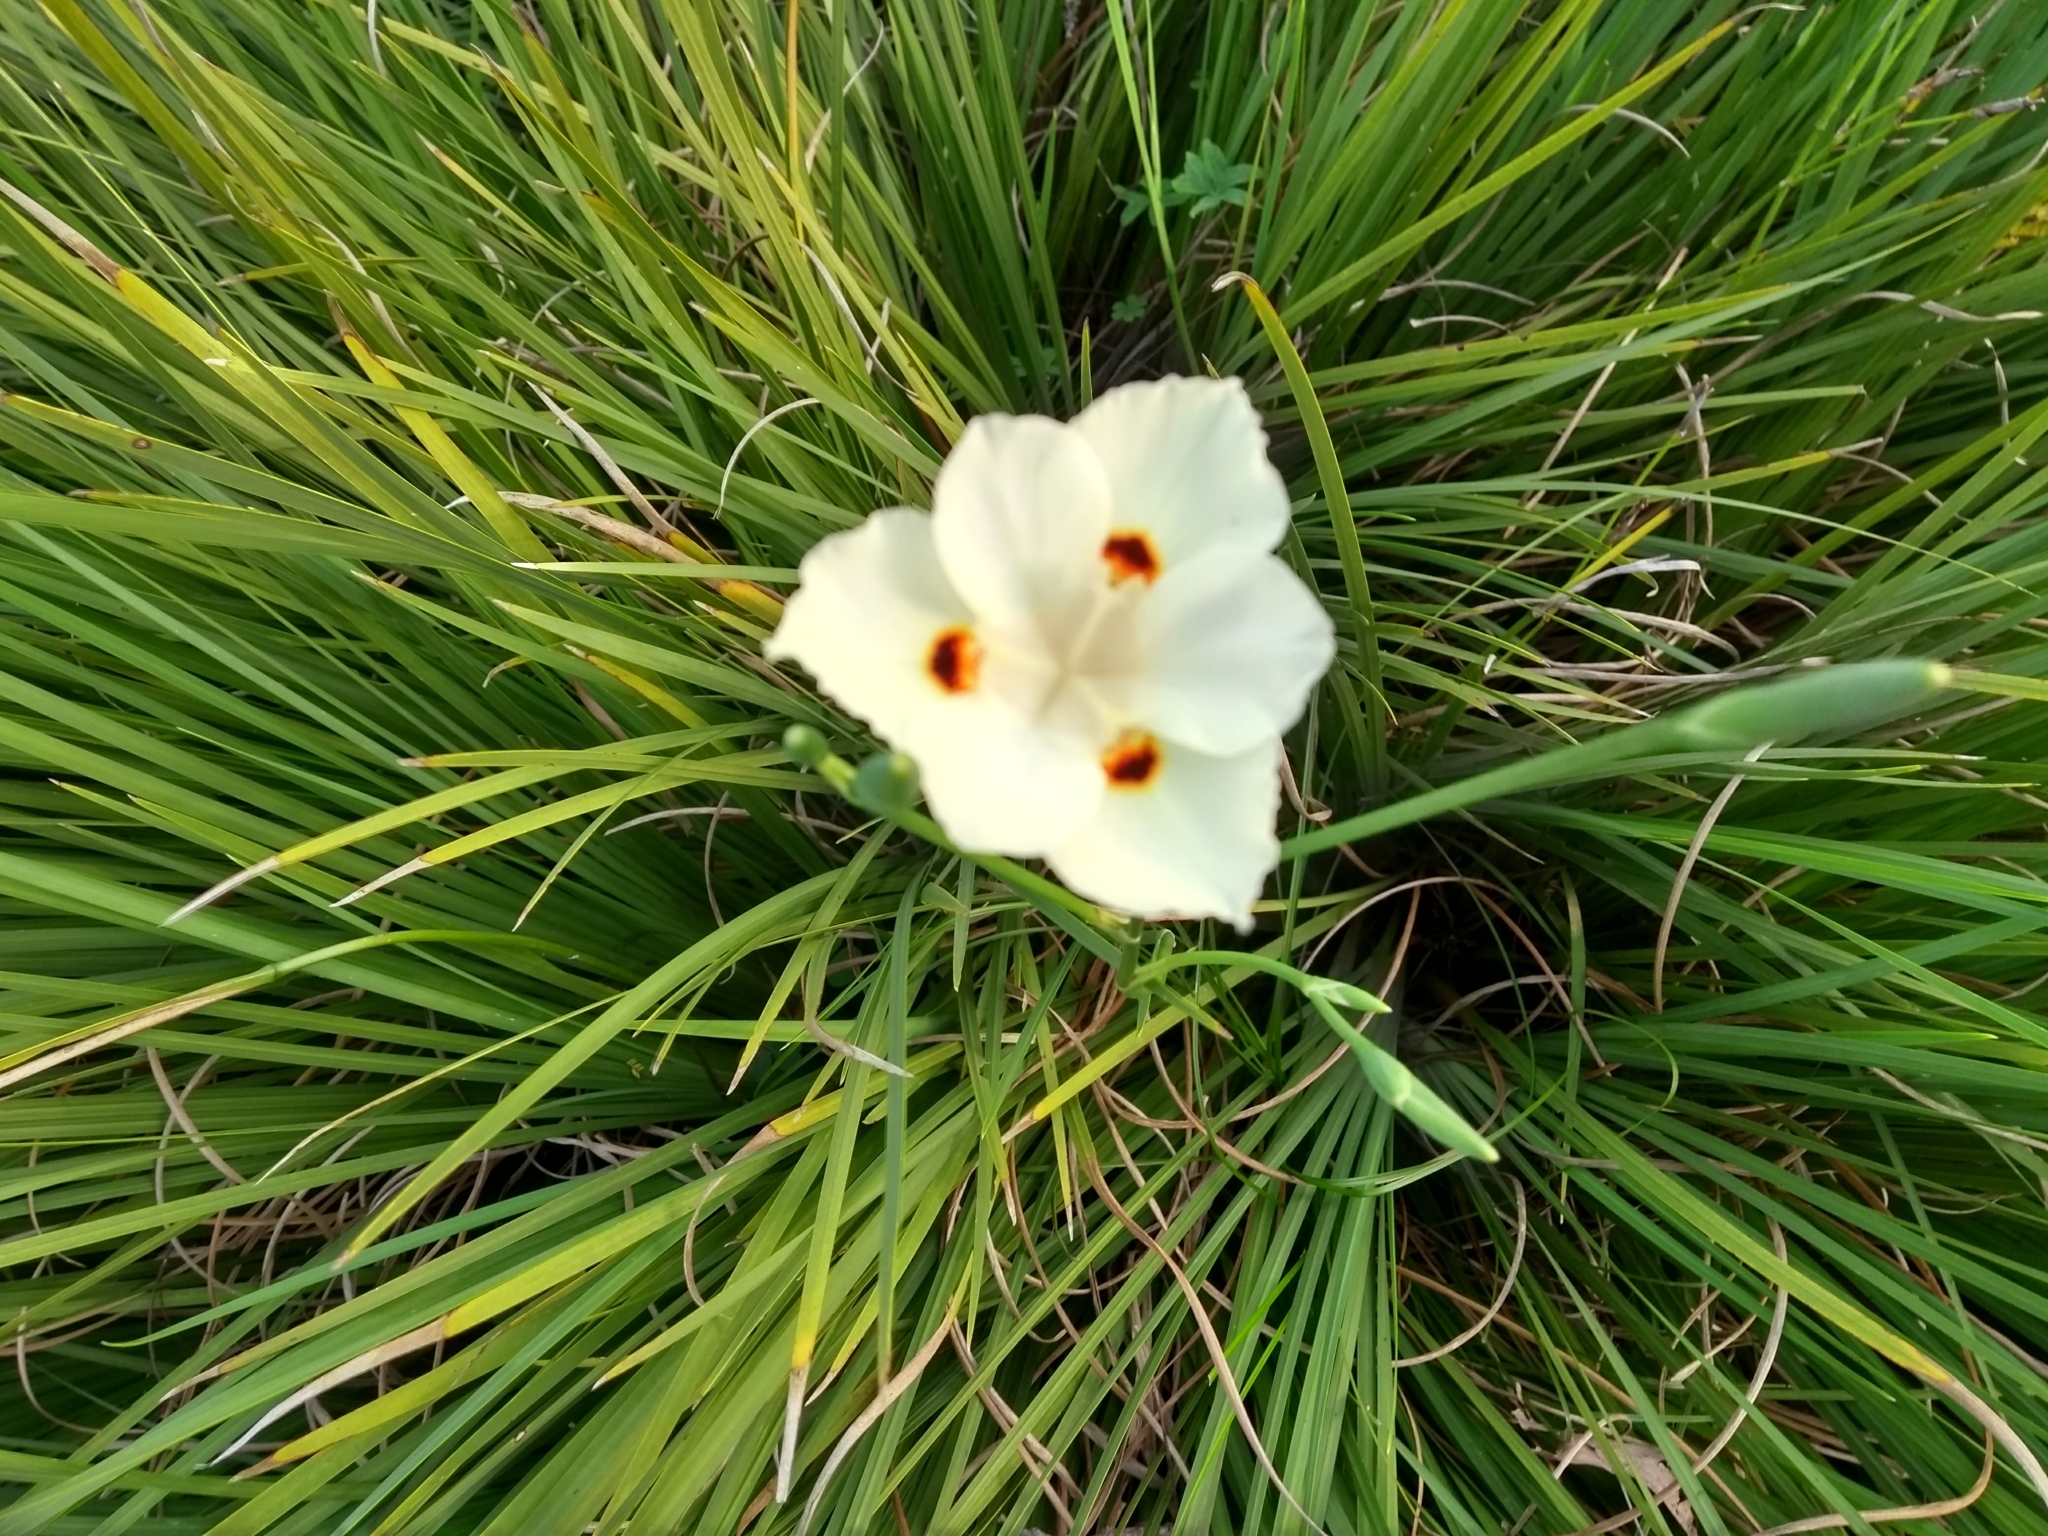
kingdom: Plantae
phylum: Tracheophyta
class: Liliopsida
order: Asparagales
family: Iridaceae
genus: Dietes
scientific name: Dietes bicolor
